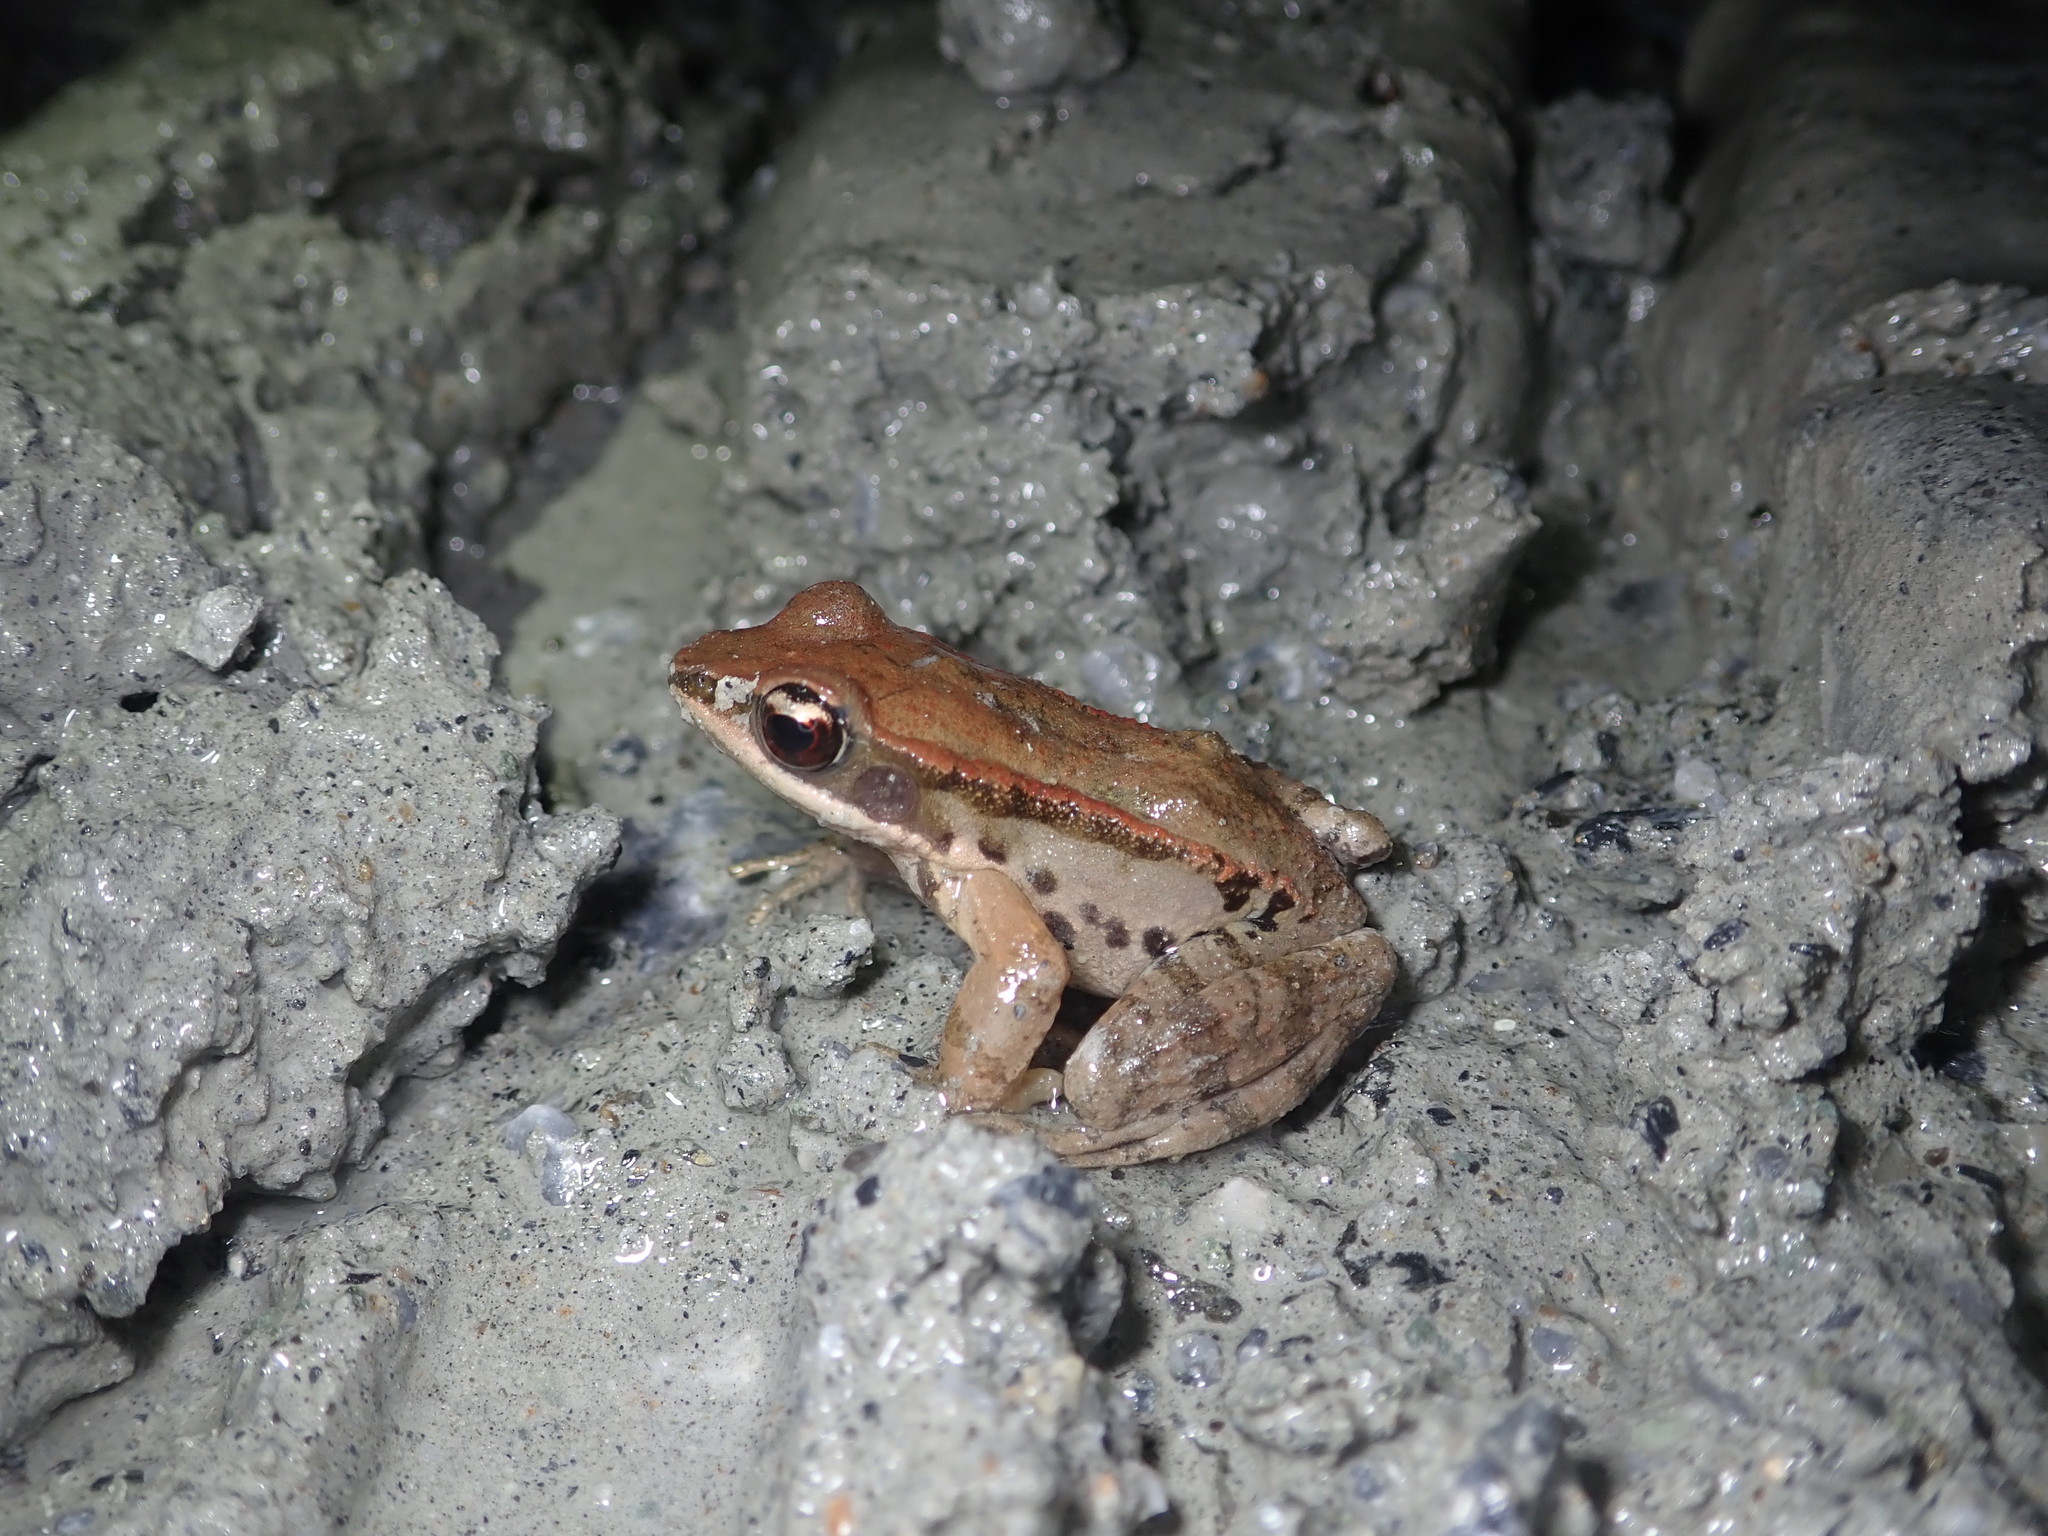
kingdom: Animalia
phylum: Chordata
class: Amphibia
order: Anura
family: Ranidae
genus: Hylarana
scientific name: Hylarana latouchii
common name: Broad-folded frog
